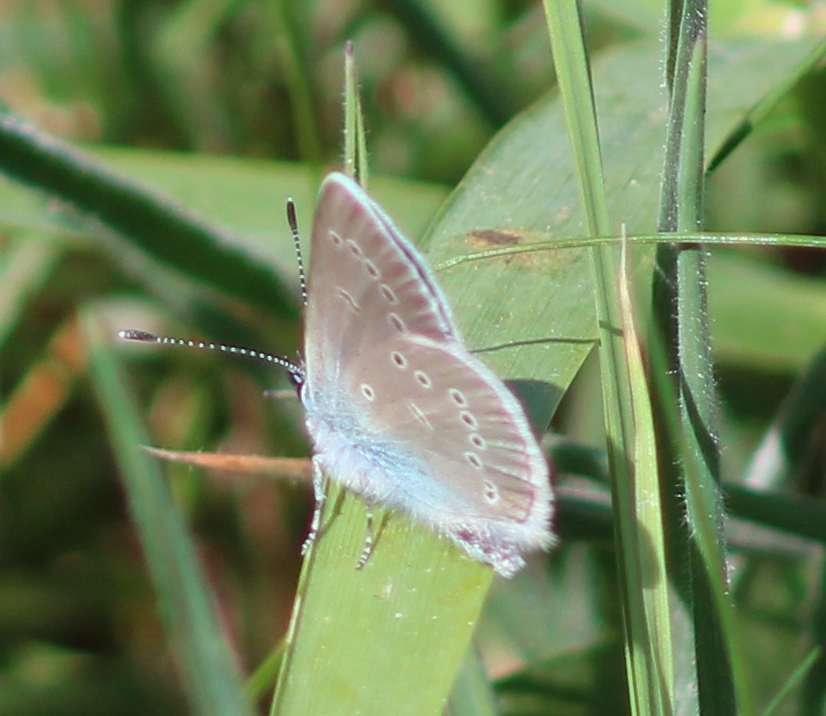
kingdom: Animalia
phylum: Arthropoda
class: Insecta
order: Lepidoptera
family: Lycaenidae
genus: Cyaniris
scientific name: Cyaniris semiargus
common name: Mazarine blue
